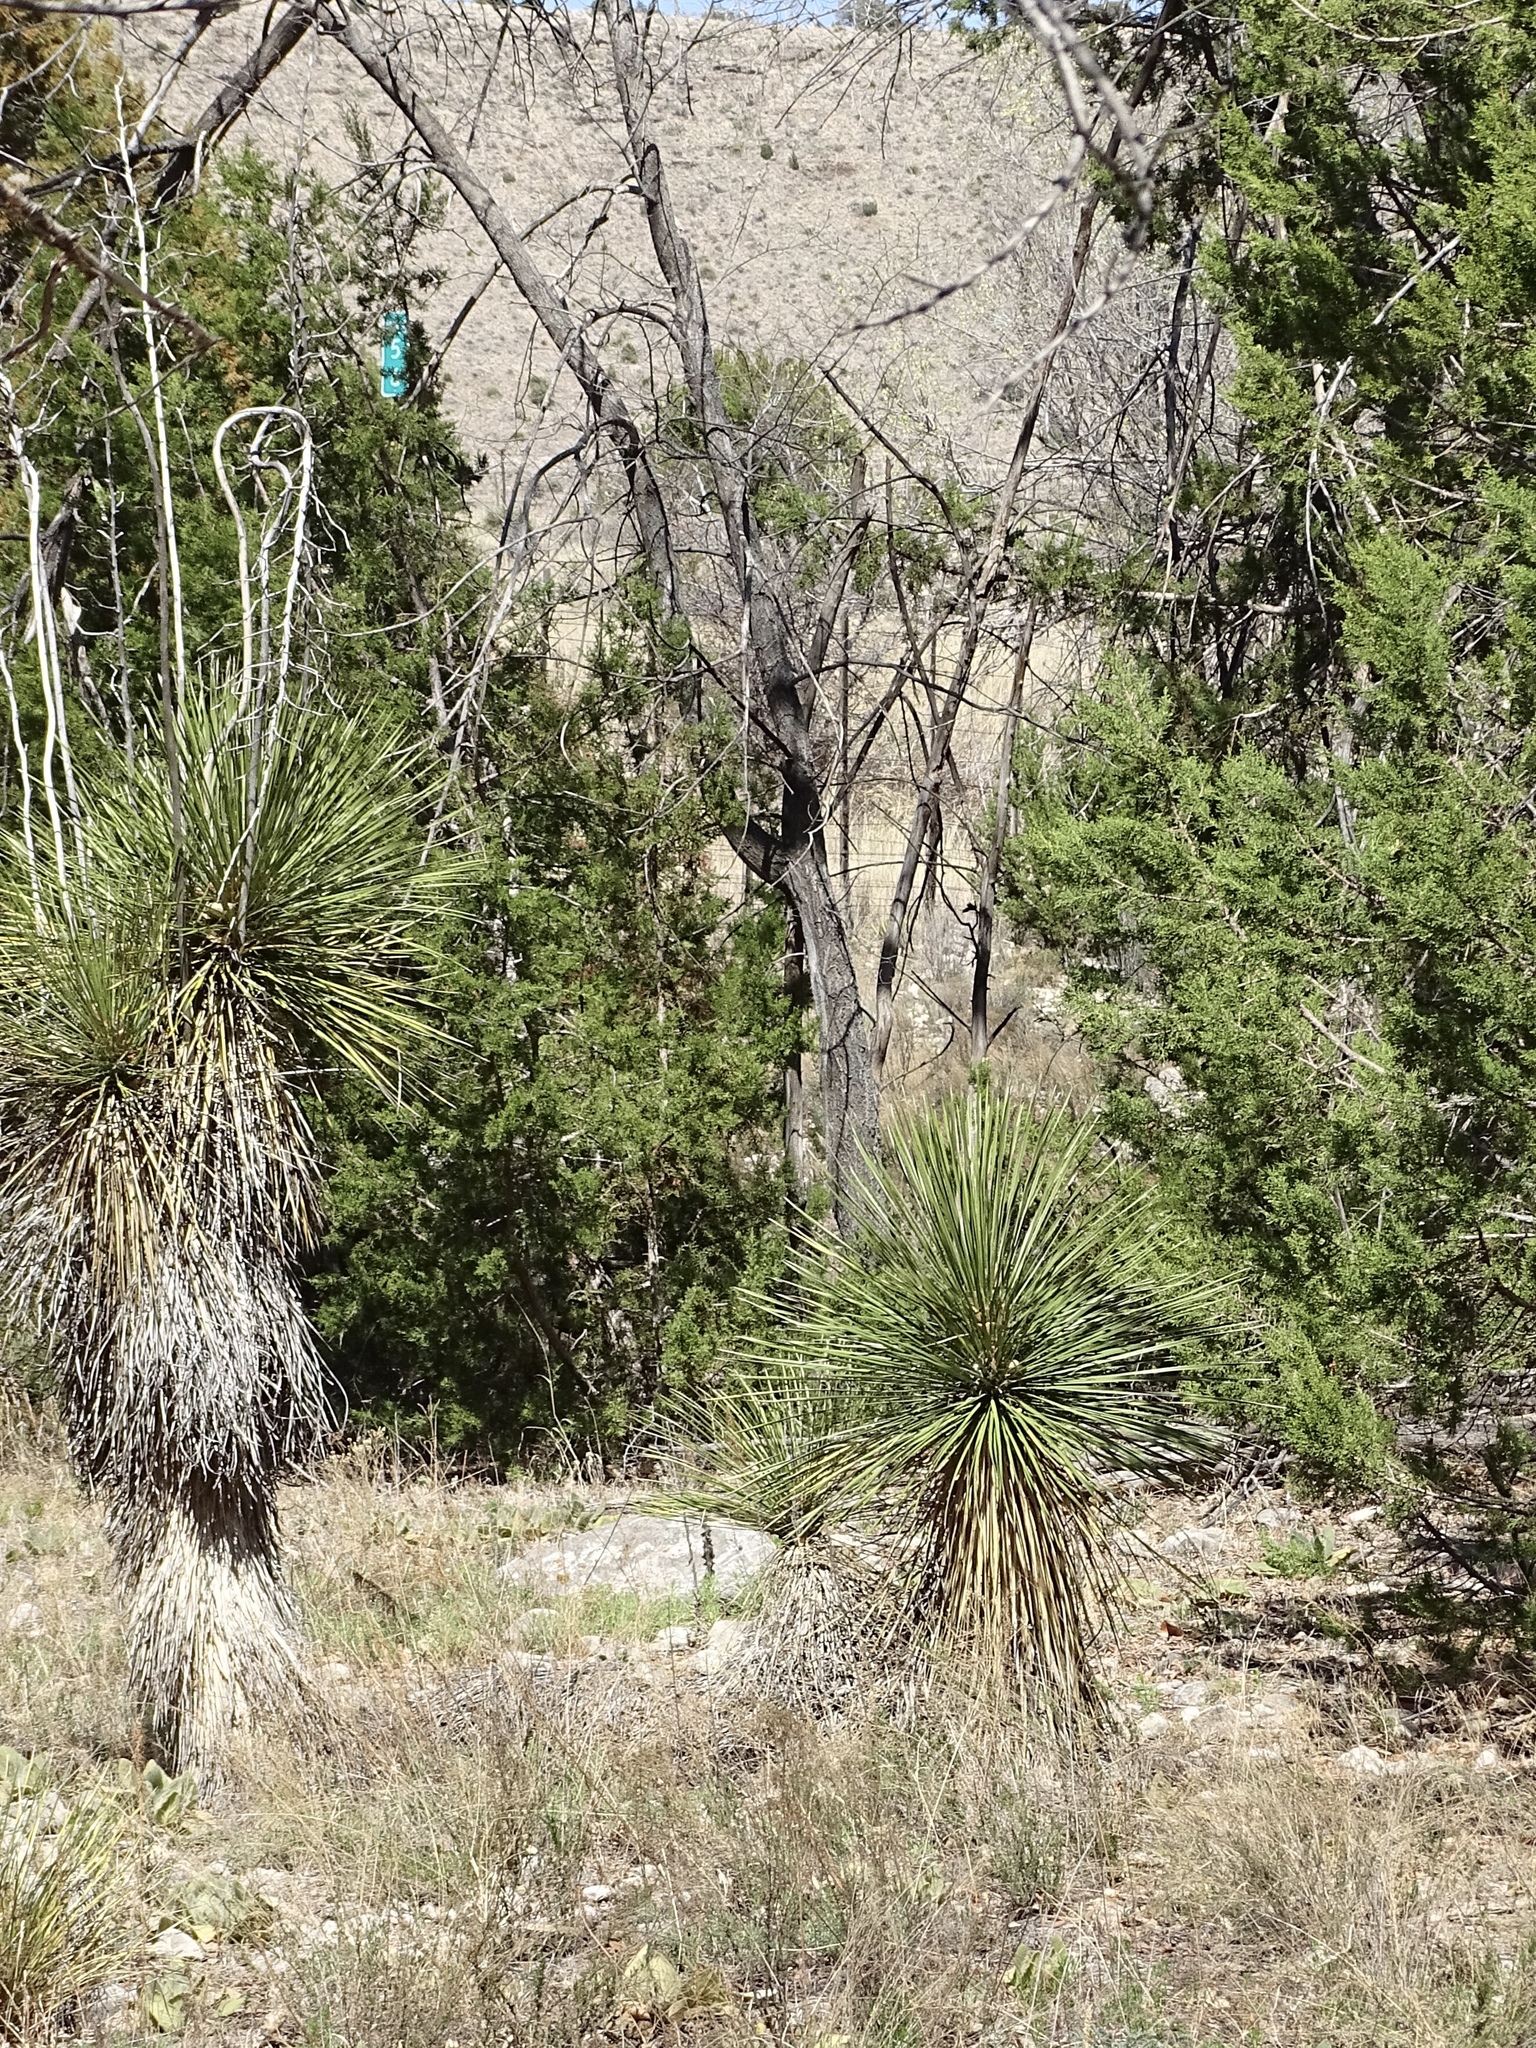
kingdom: Plantae
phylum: Tracheophyta
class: Liliopsida
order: Asparagales
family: Asparagaceae
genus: Yucca
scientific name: Yucca elata
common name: Palmella
